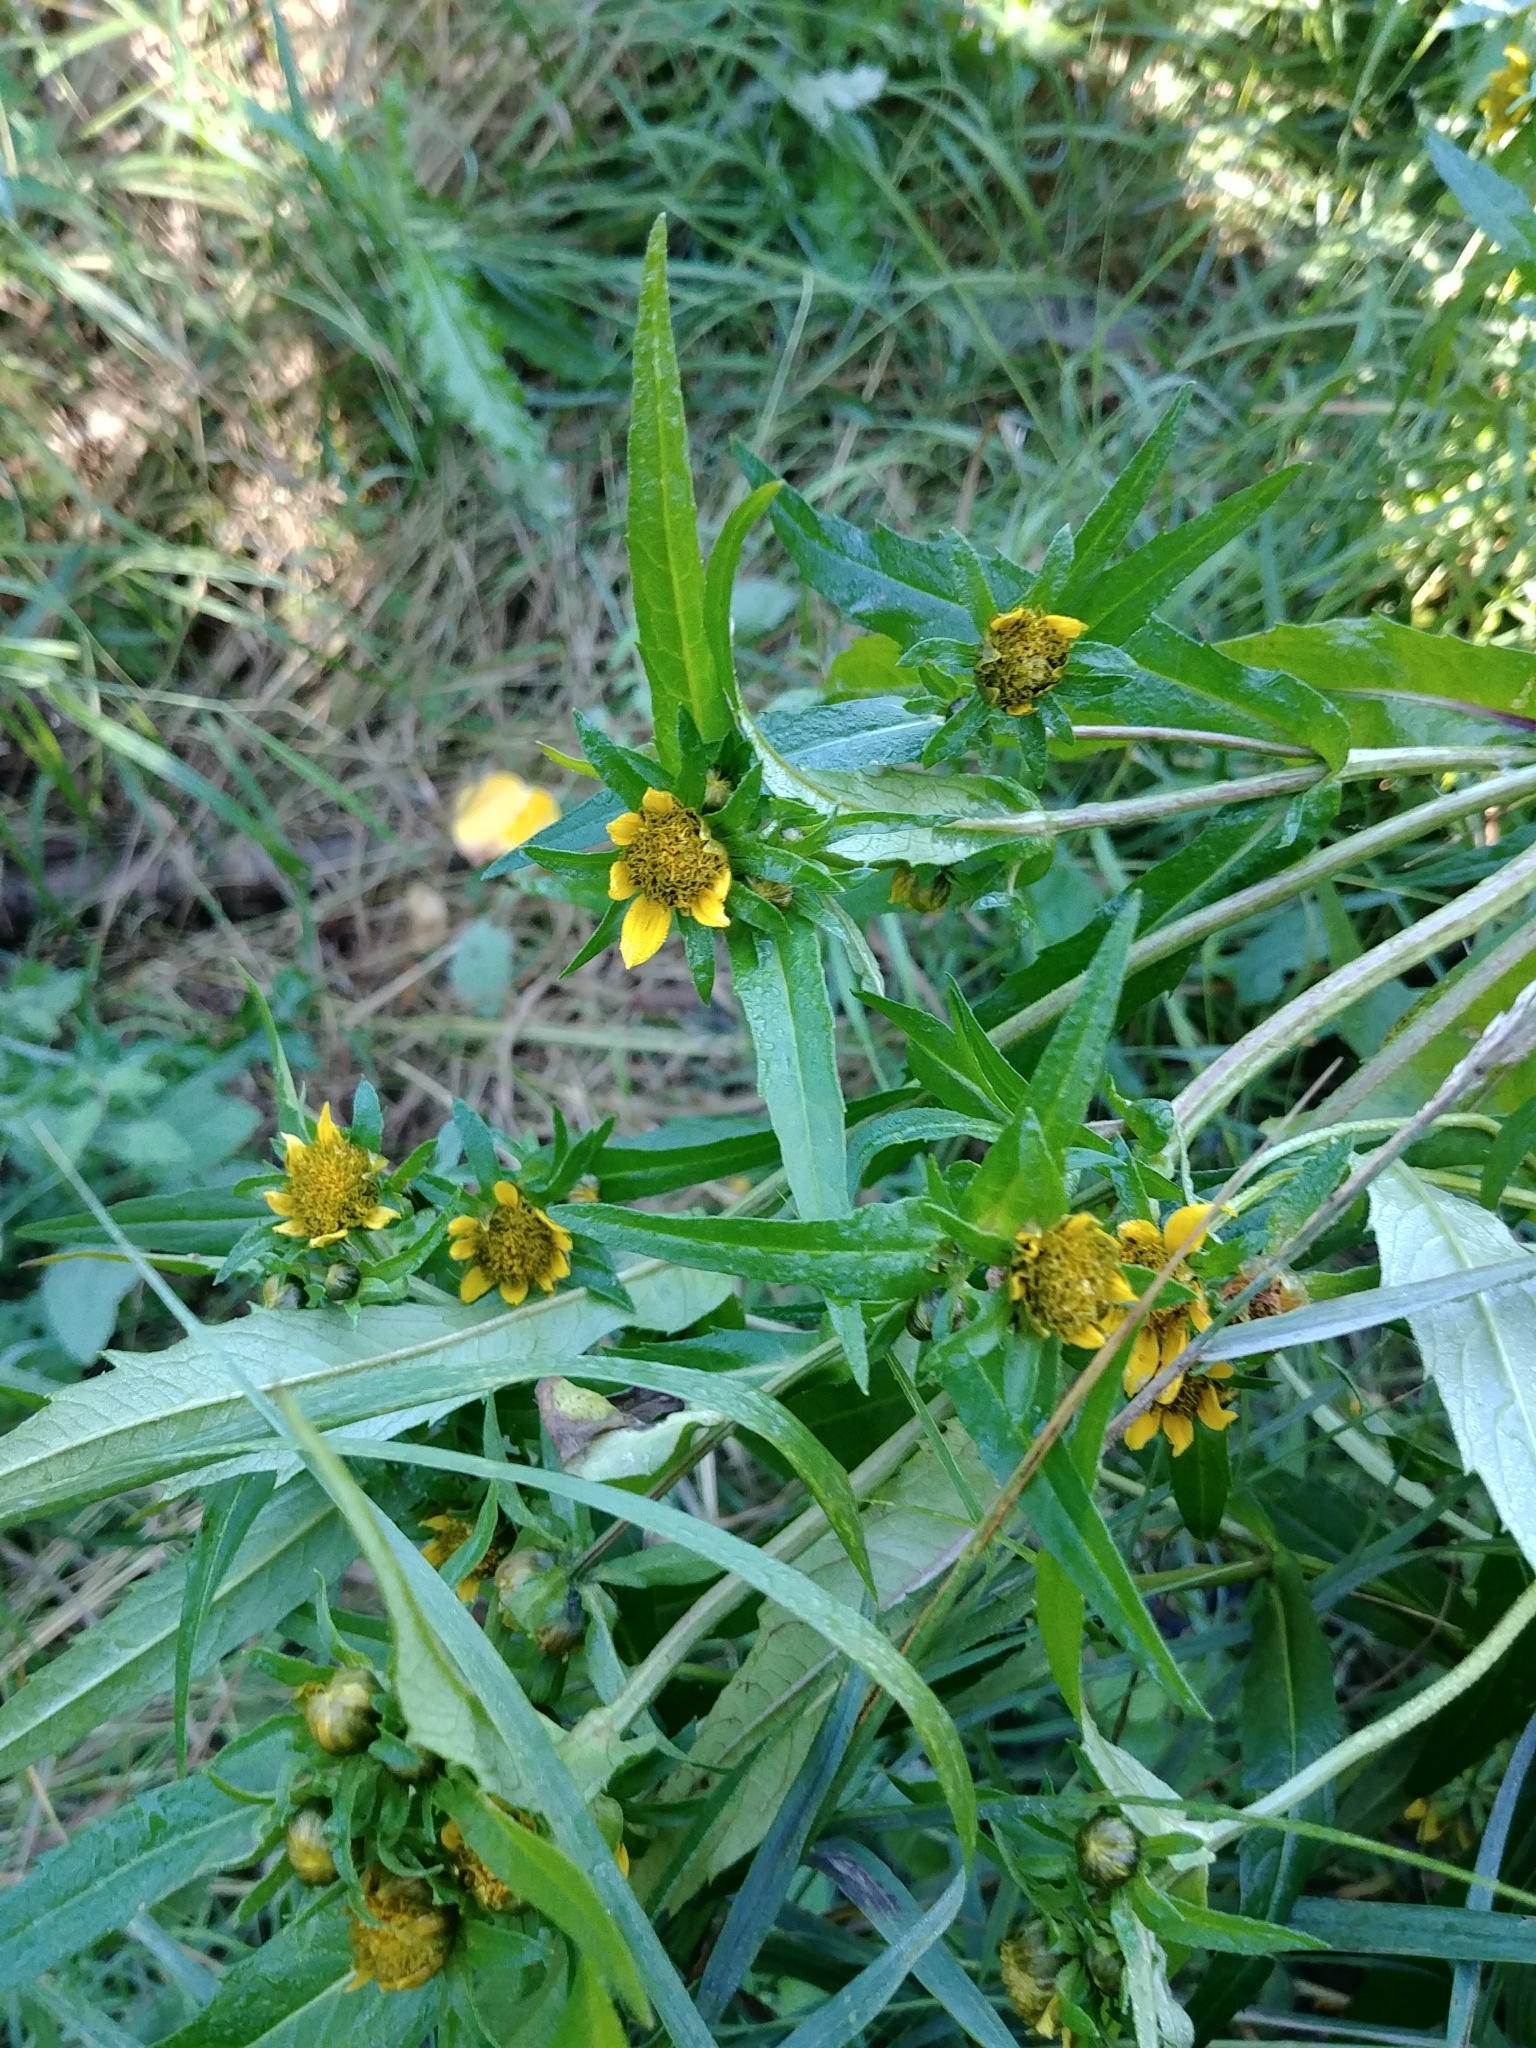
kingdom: Plantae
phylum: Tracheophyta
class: Magnoliopsida
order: Asterales
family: Asteraceae
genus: Bidens
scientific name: Bidens cernua
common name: Nodding bur-marigold
